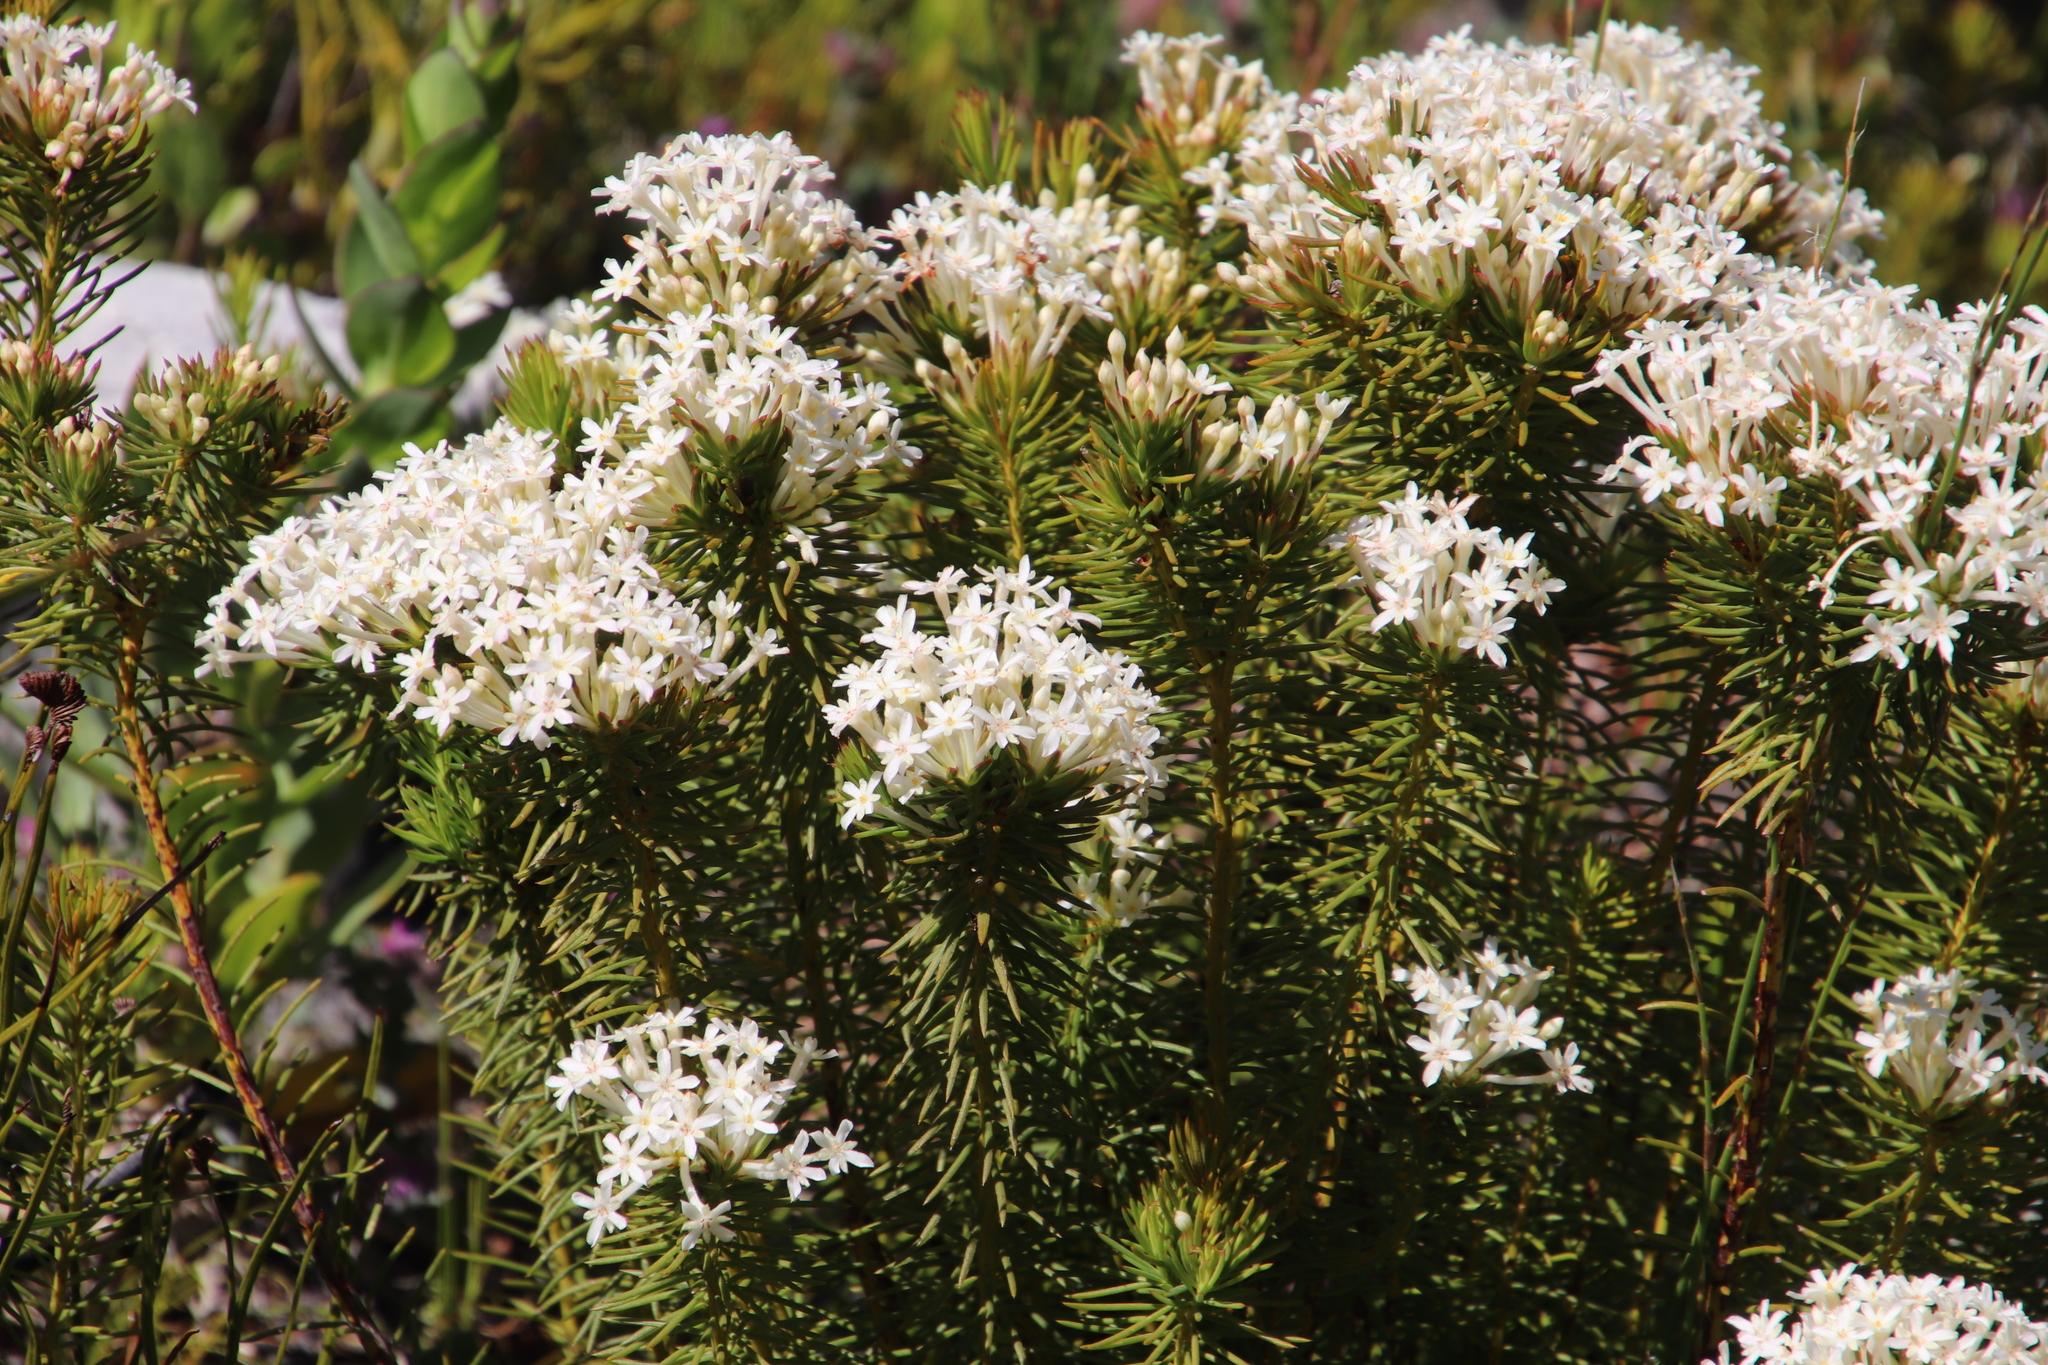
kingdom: Plantae
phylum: Tracheophyta
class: Magnoliopsida
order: Malvales
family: Thymelaeaceae
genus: Gnidia
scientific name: Gnidia pinifolia
